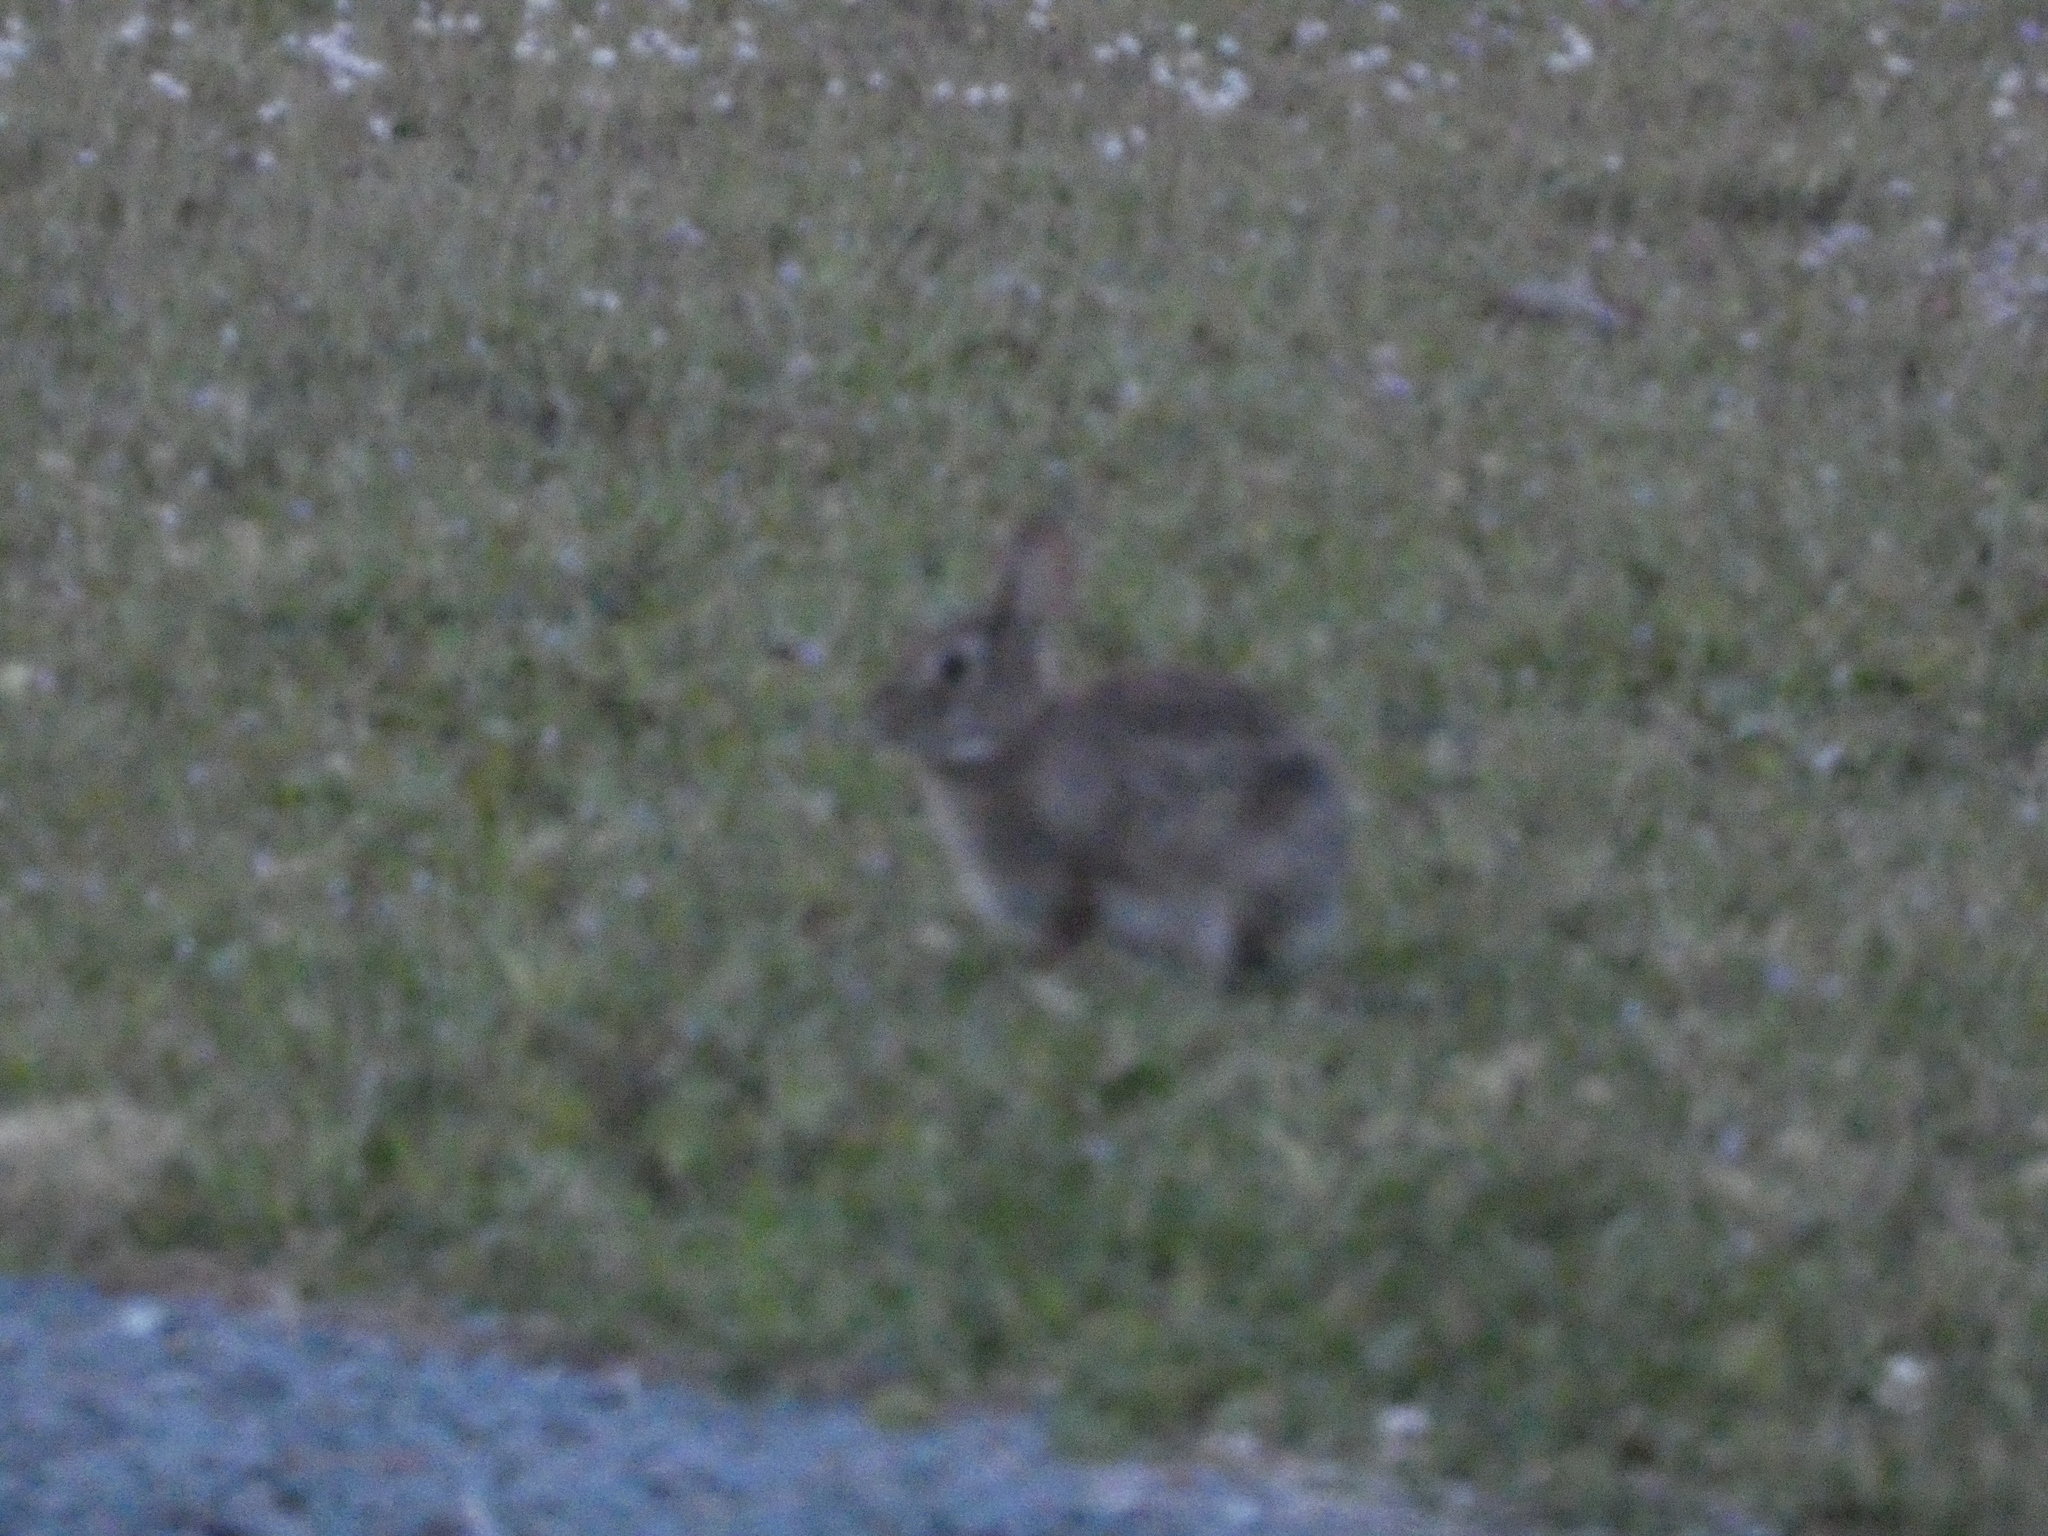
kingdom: Animalia
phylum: Chordata
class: Mammalia
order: Lagomorpha
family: Leporidae
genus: Sylvilagus
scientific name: Sylvilagus floridanus
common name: Eastern cottontail
